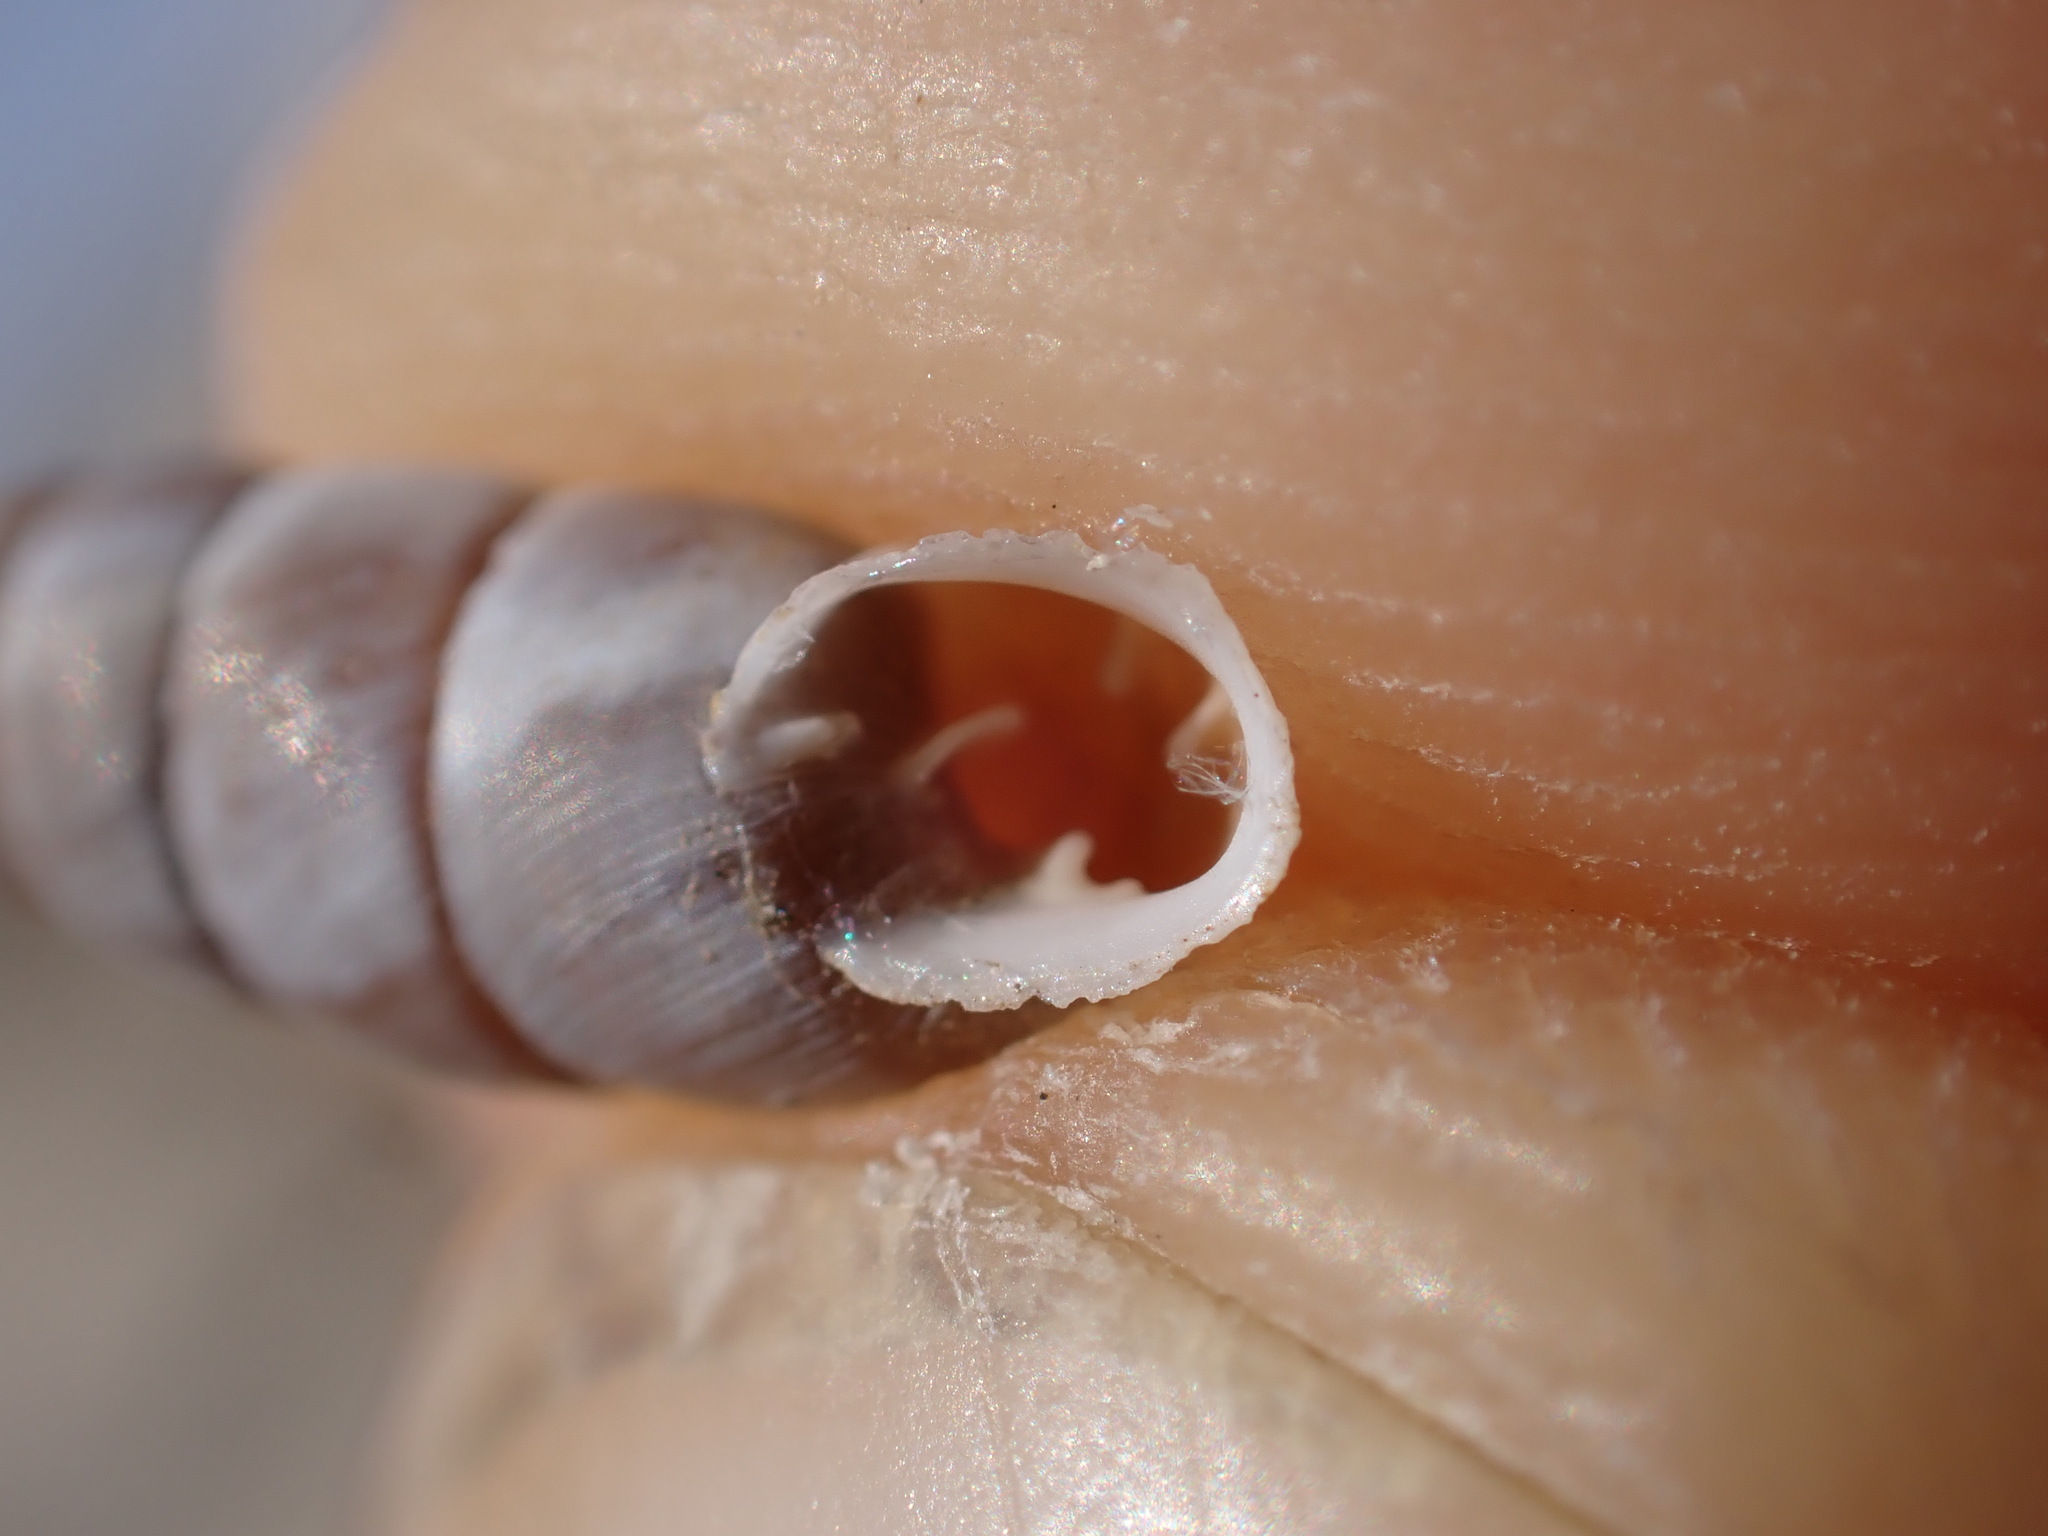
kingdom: Animalia
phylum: Mollusca
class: Gastropoda
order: Stylommatophora
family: Chondrinidae
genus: Solatopupa
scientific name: Solatopupa similis
